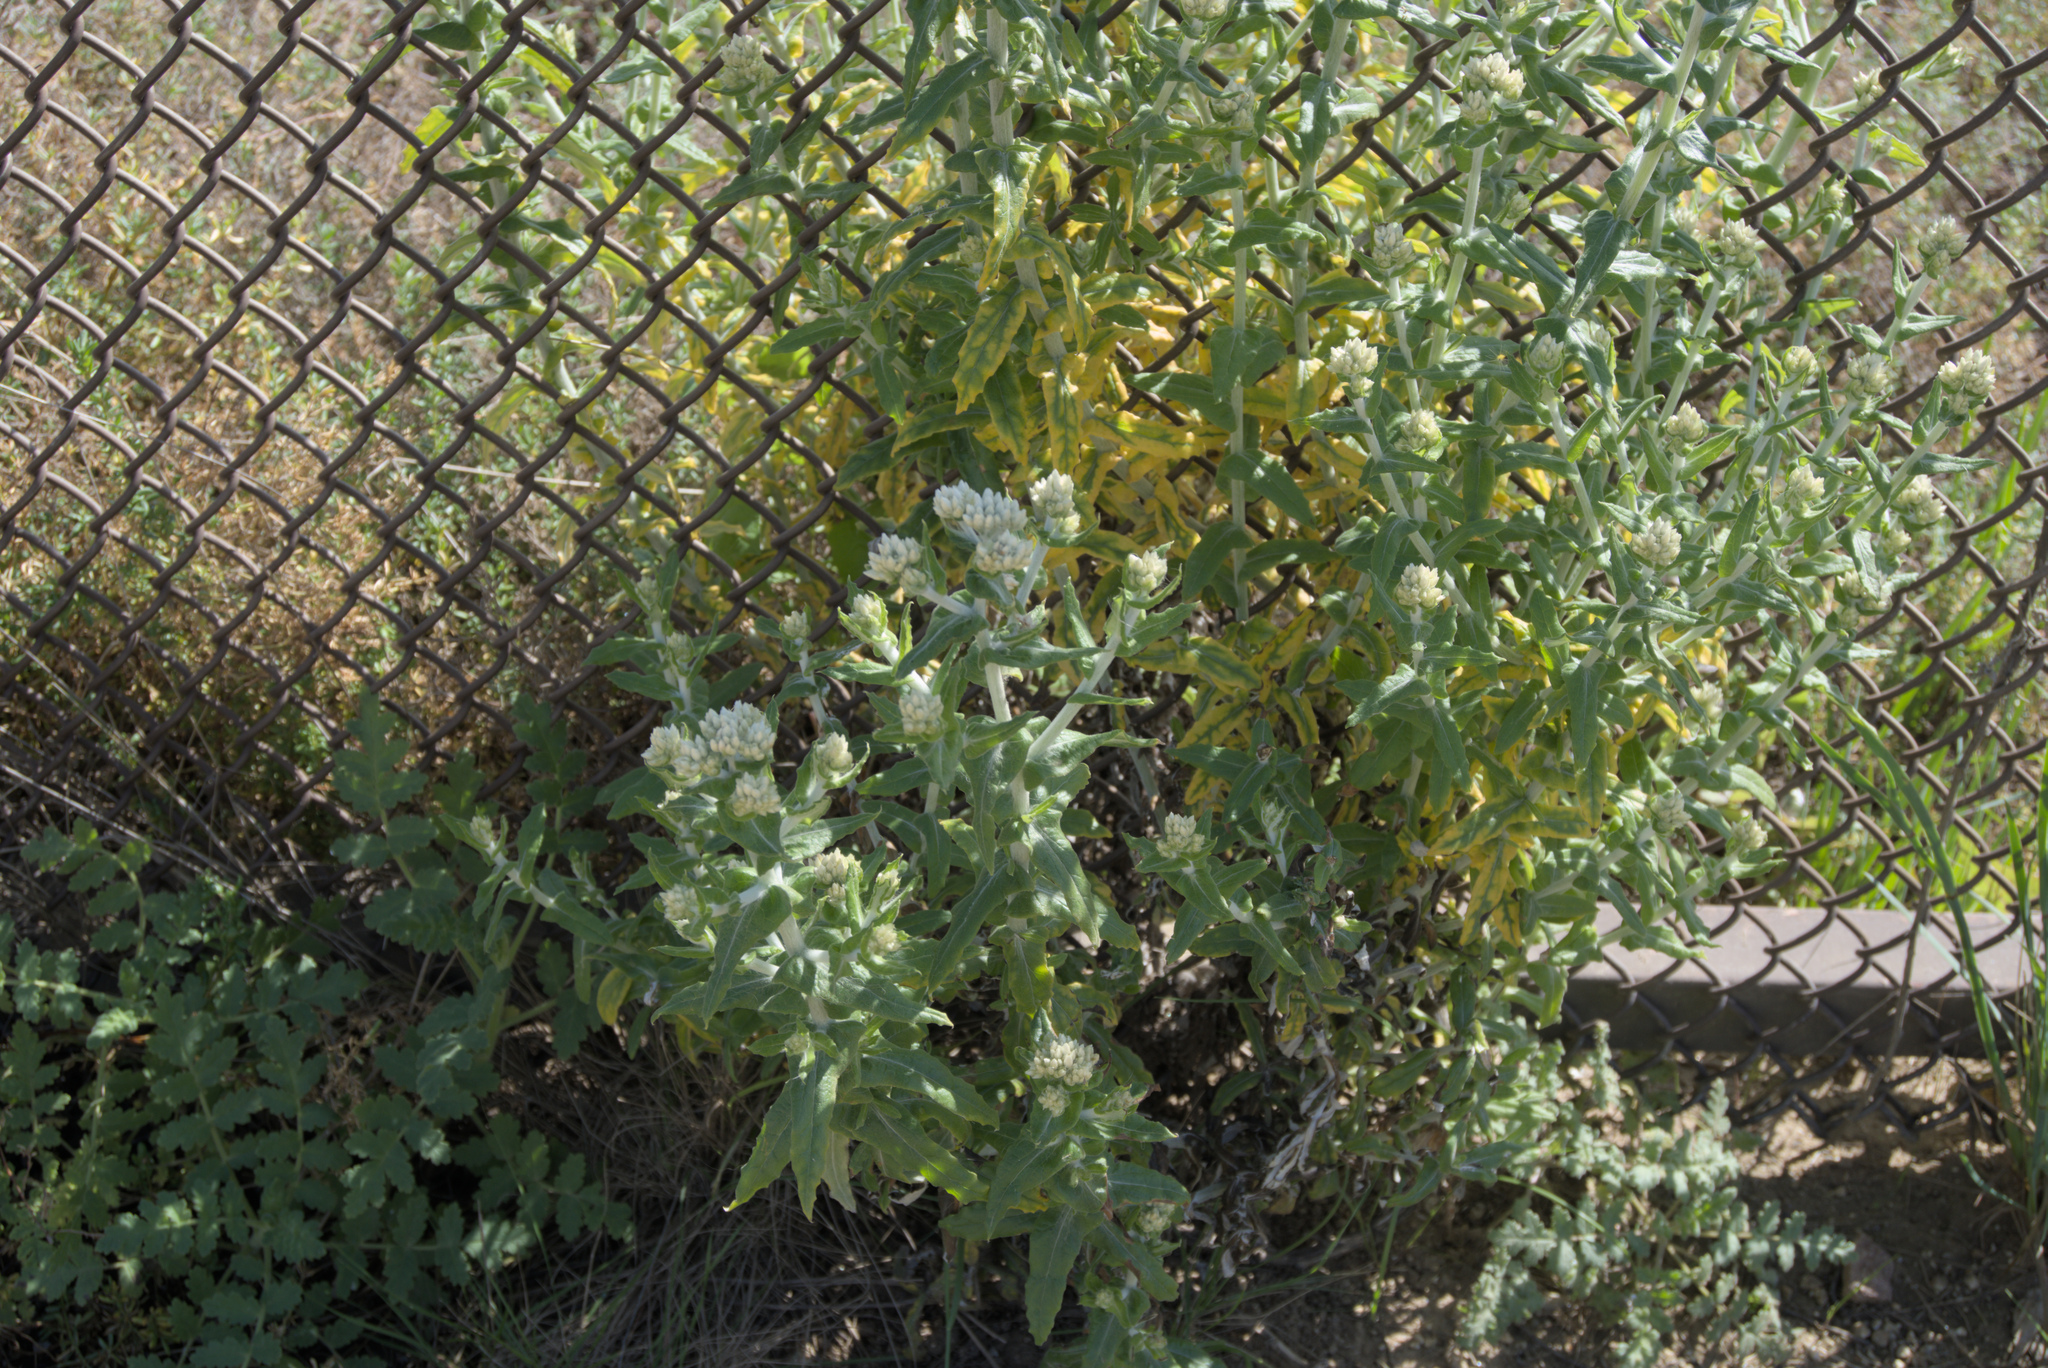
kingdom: Plantae
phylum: Tracheophyta
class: Magnoliopsida
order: Asterales
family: Asteraceae
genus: Pseudognaphalium
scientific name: Pseudognaphalium biolettii
